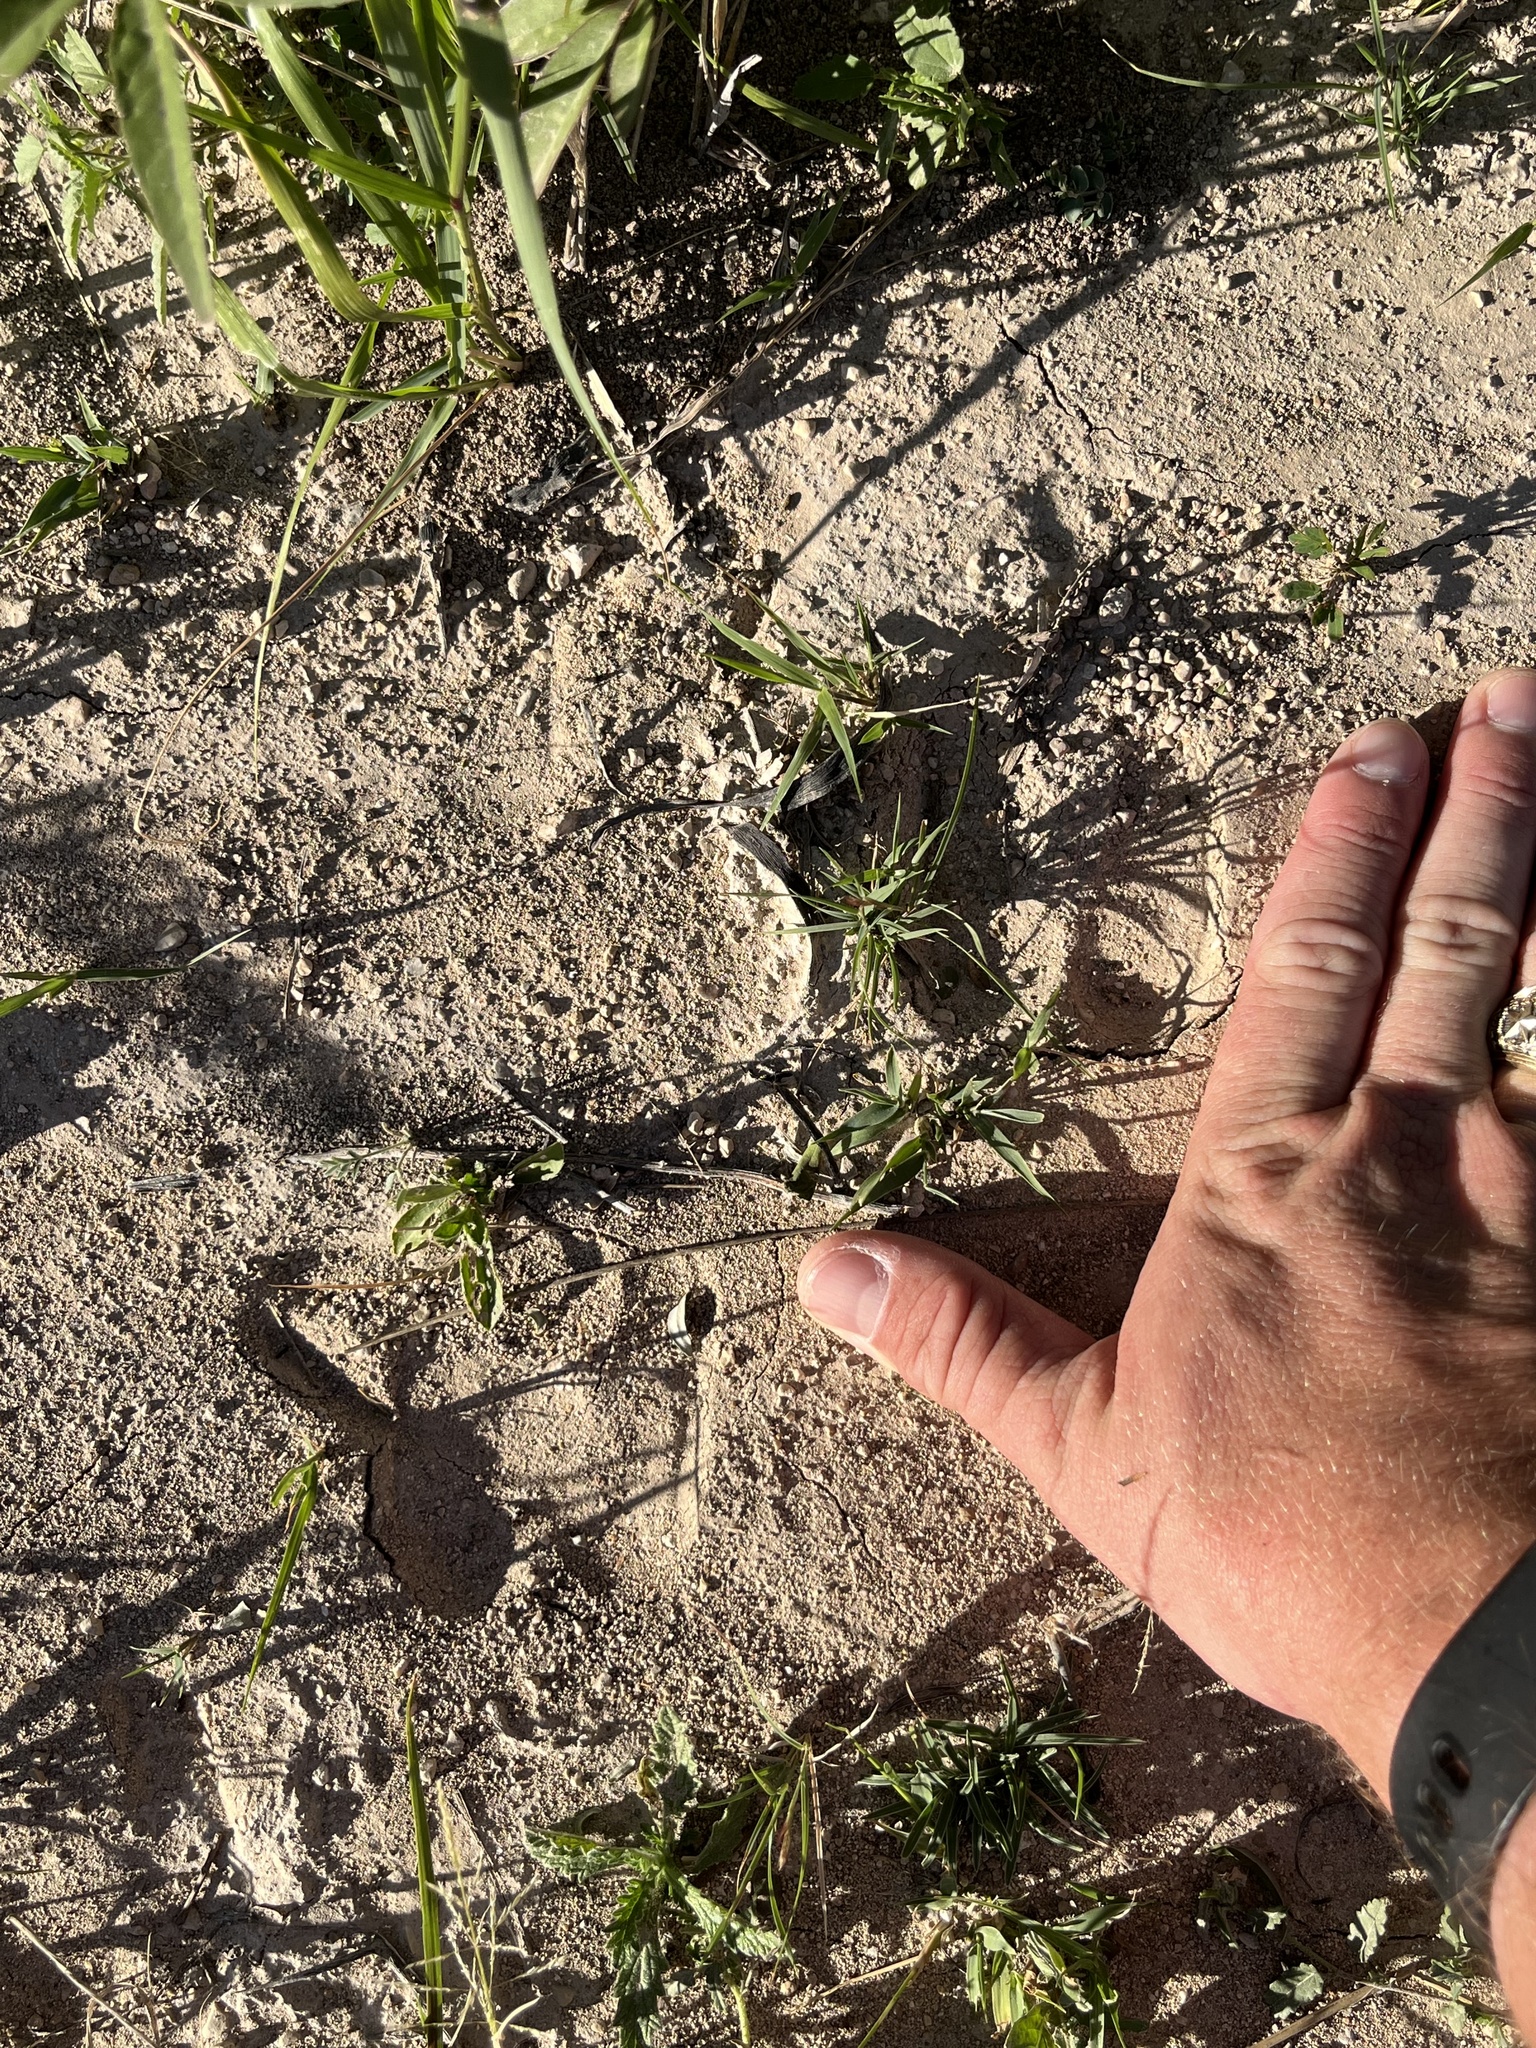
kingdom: Animalia
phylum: Chordata
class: Mammalia
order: Artiodactyla
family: Bovidae
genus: Ammotragus
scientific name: Ammotragus lervia
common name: Barbary sheep
